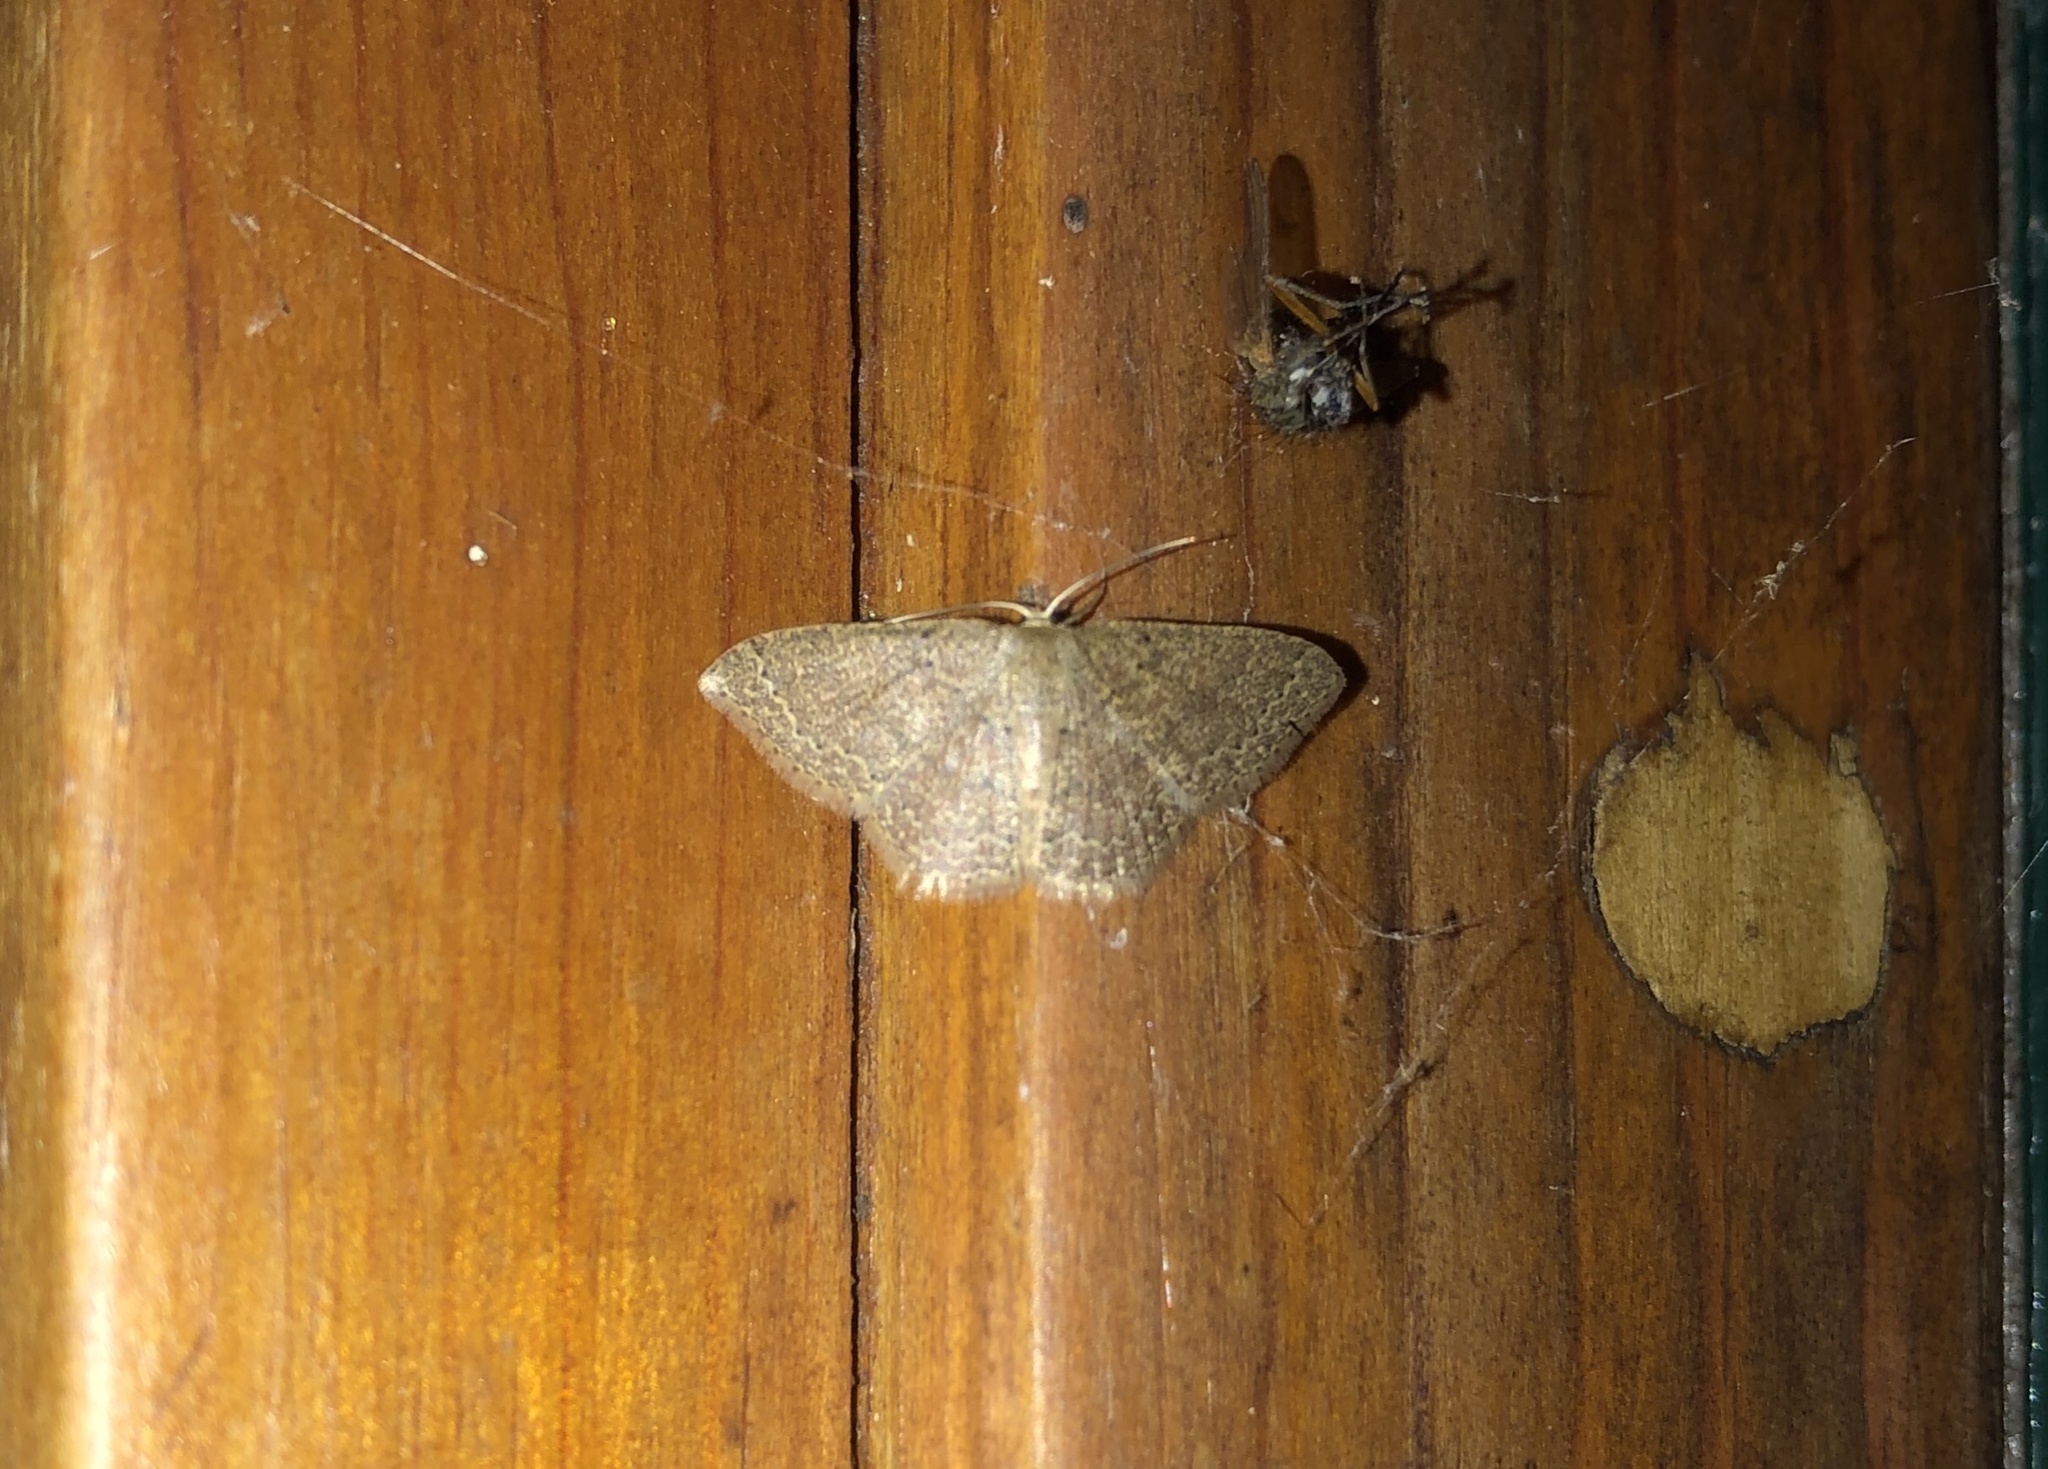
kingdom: Animalia
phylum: Arthropoda
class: Insecta
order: Lepidoptera
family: Geometridae
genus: Pleuroprucha
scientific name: Pleuroprucha insulsaria
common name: Common tan wave
